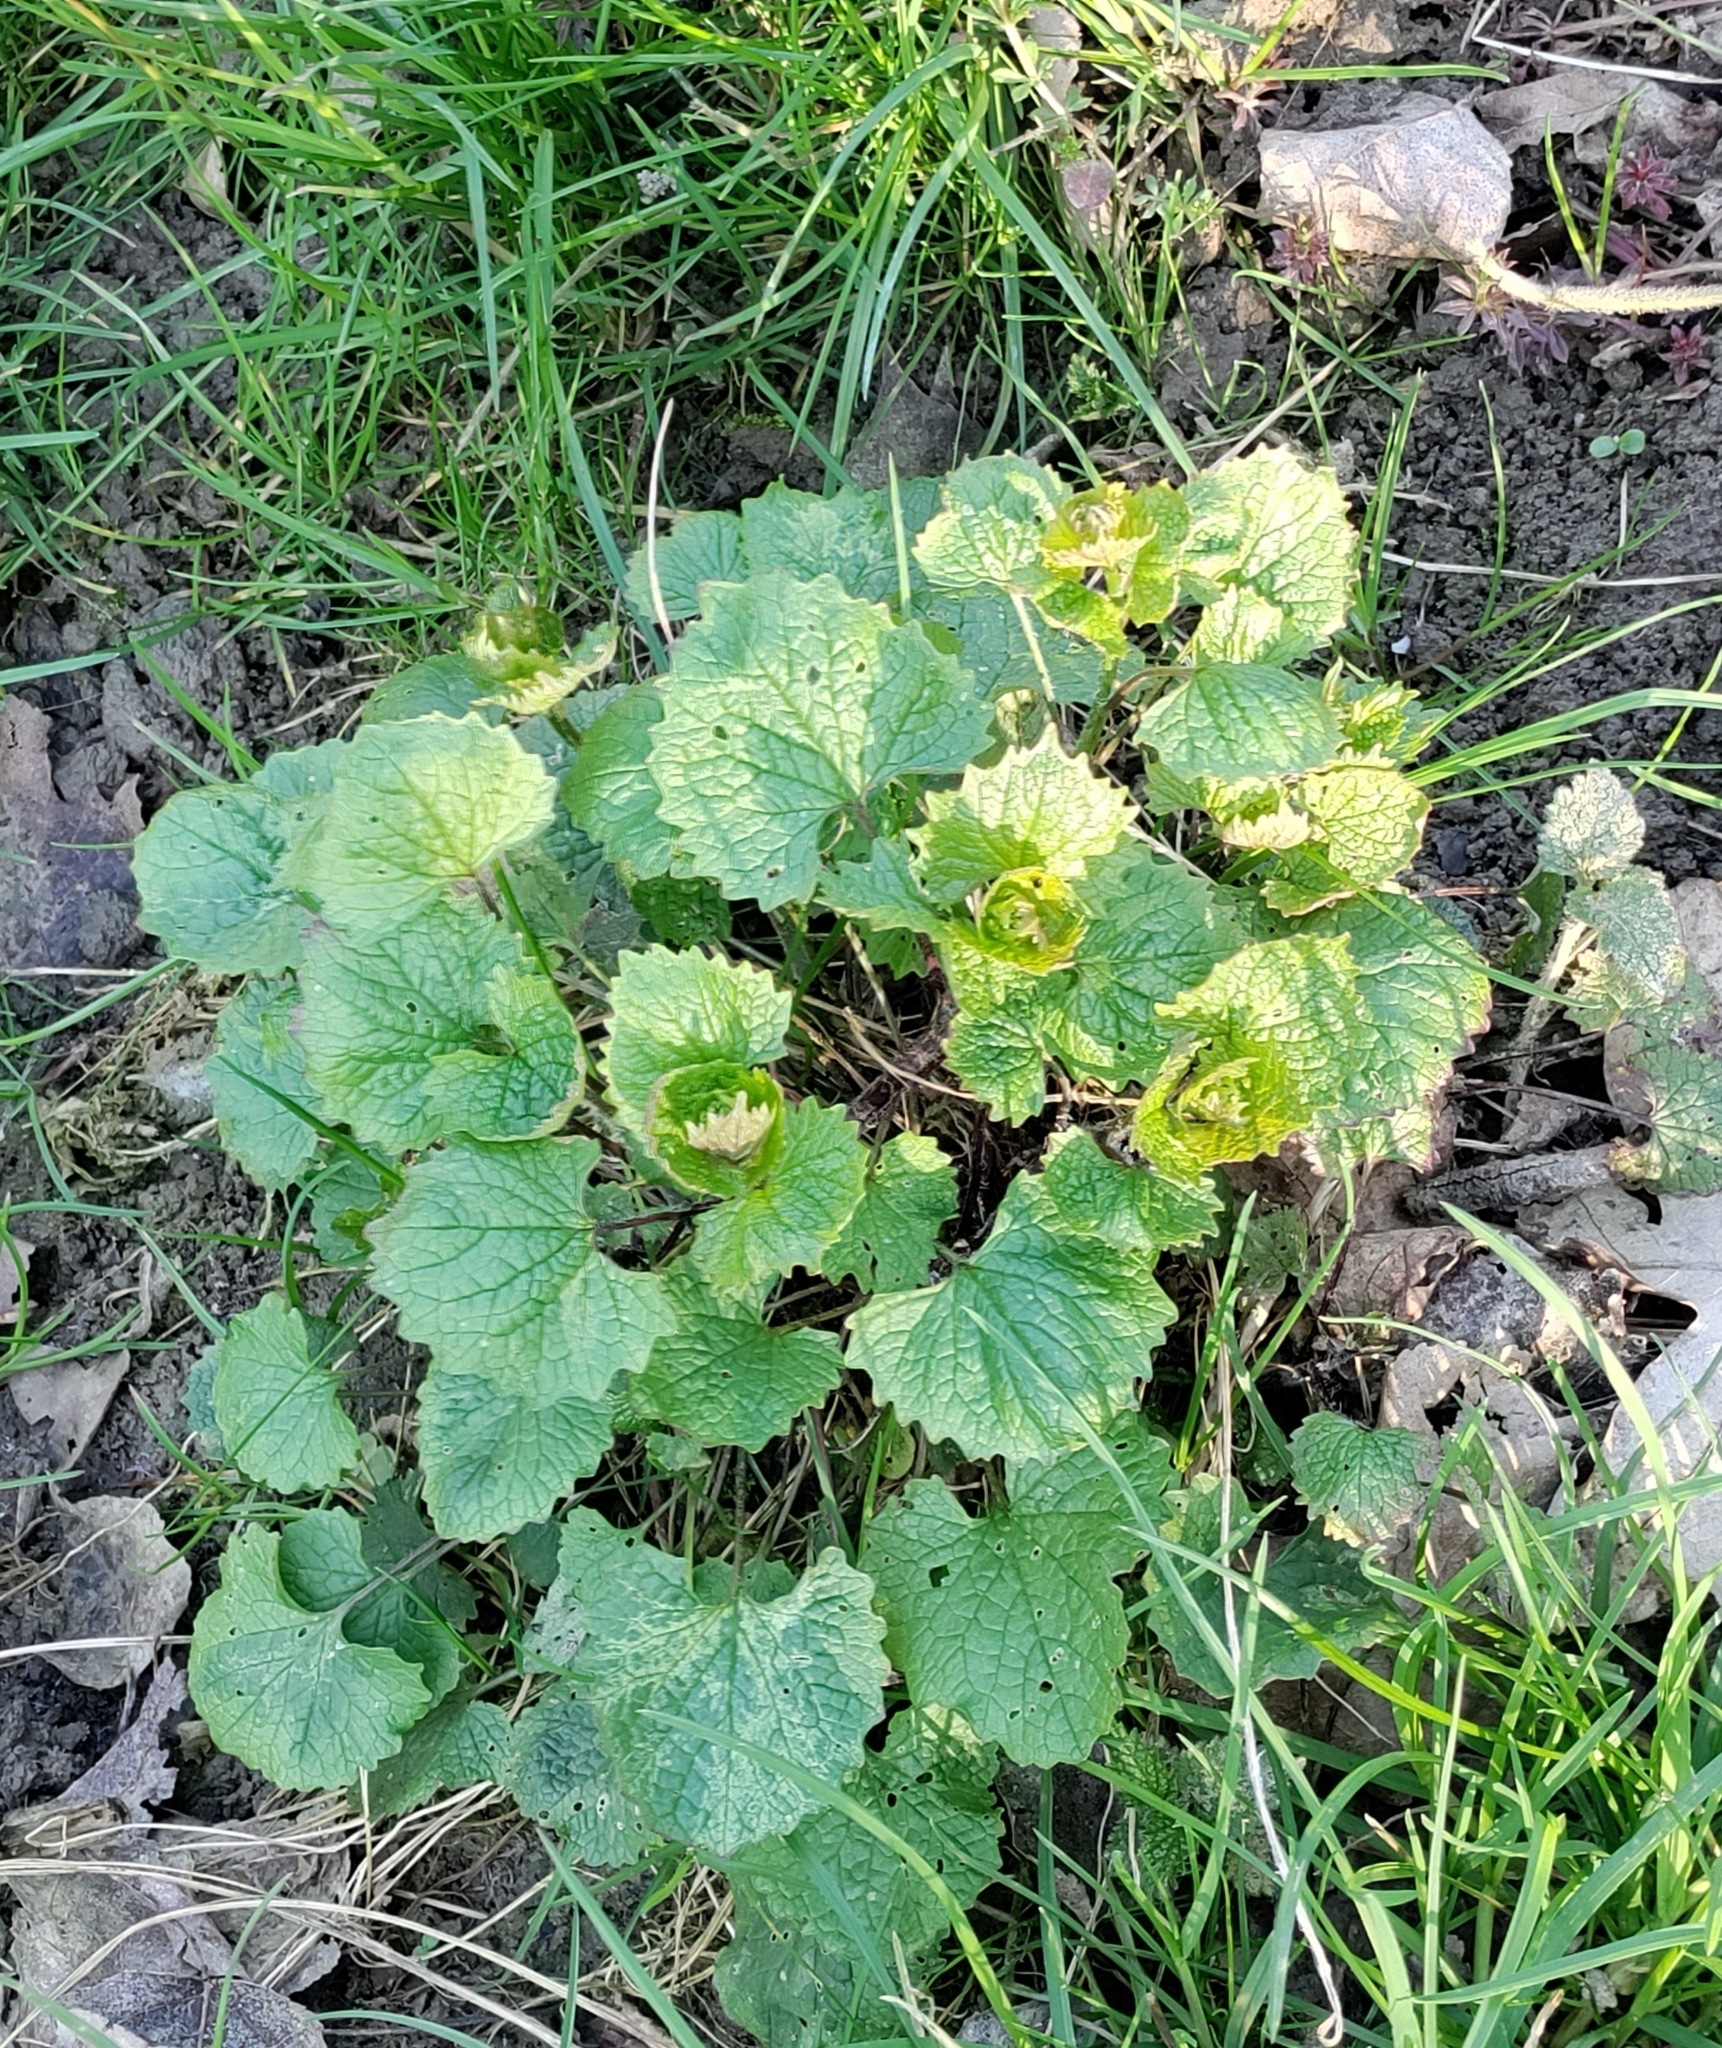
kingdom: Plantae
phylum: Tracheophyta
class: Magnoliopsida
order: Brassicales
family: Brassicaceae
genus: Alliaria
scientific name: Alliaria petiolata
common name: Garlic mustard
